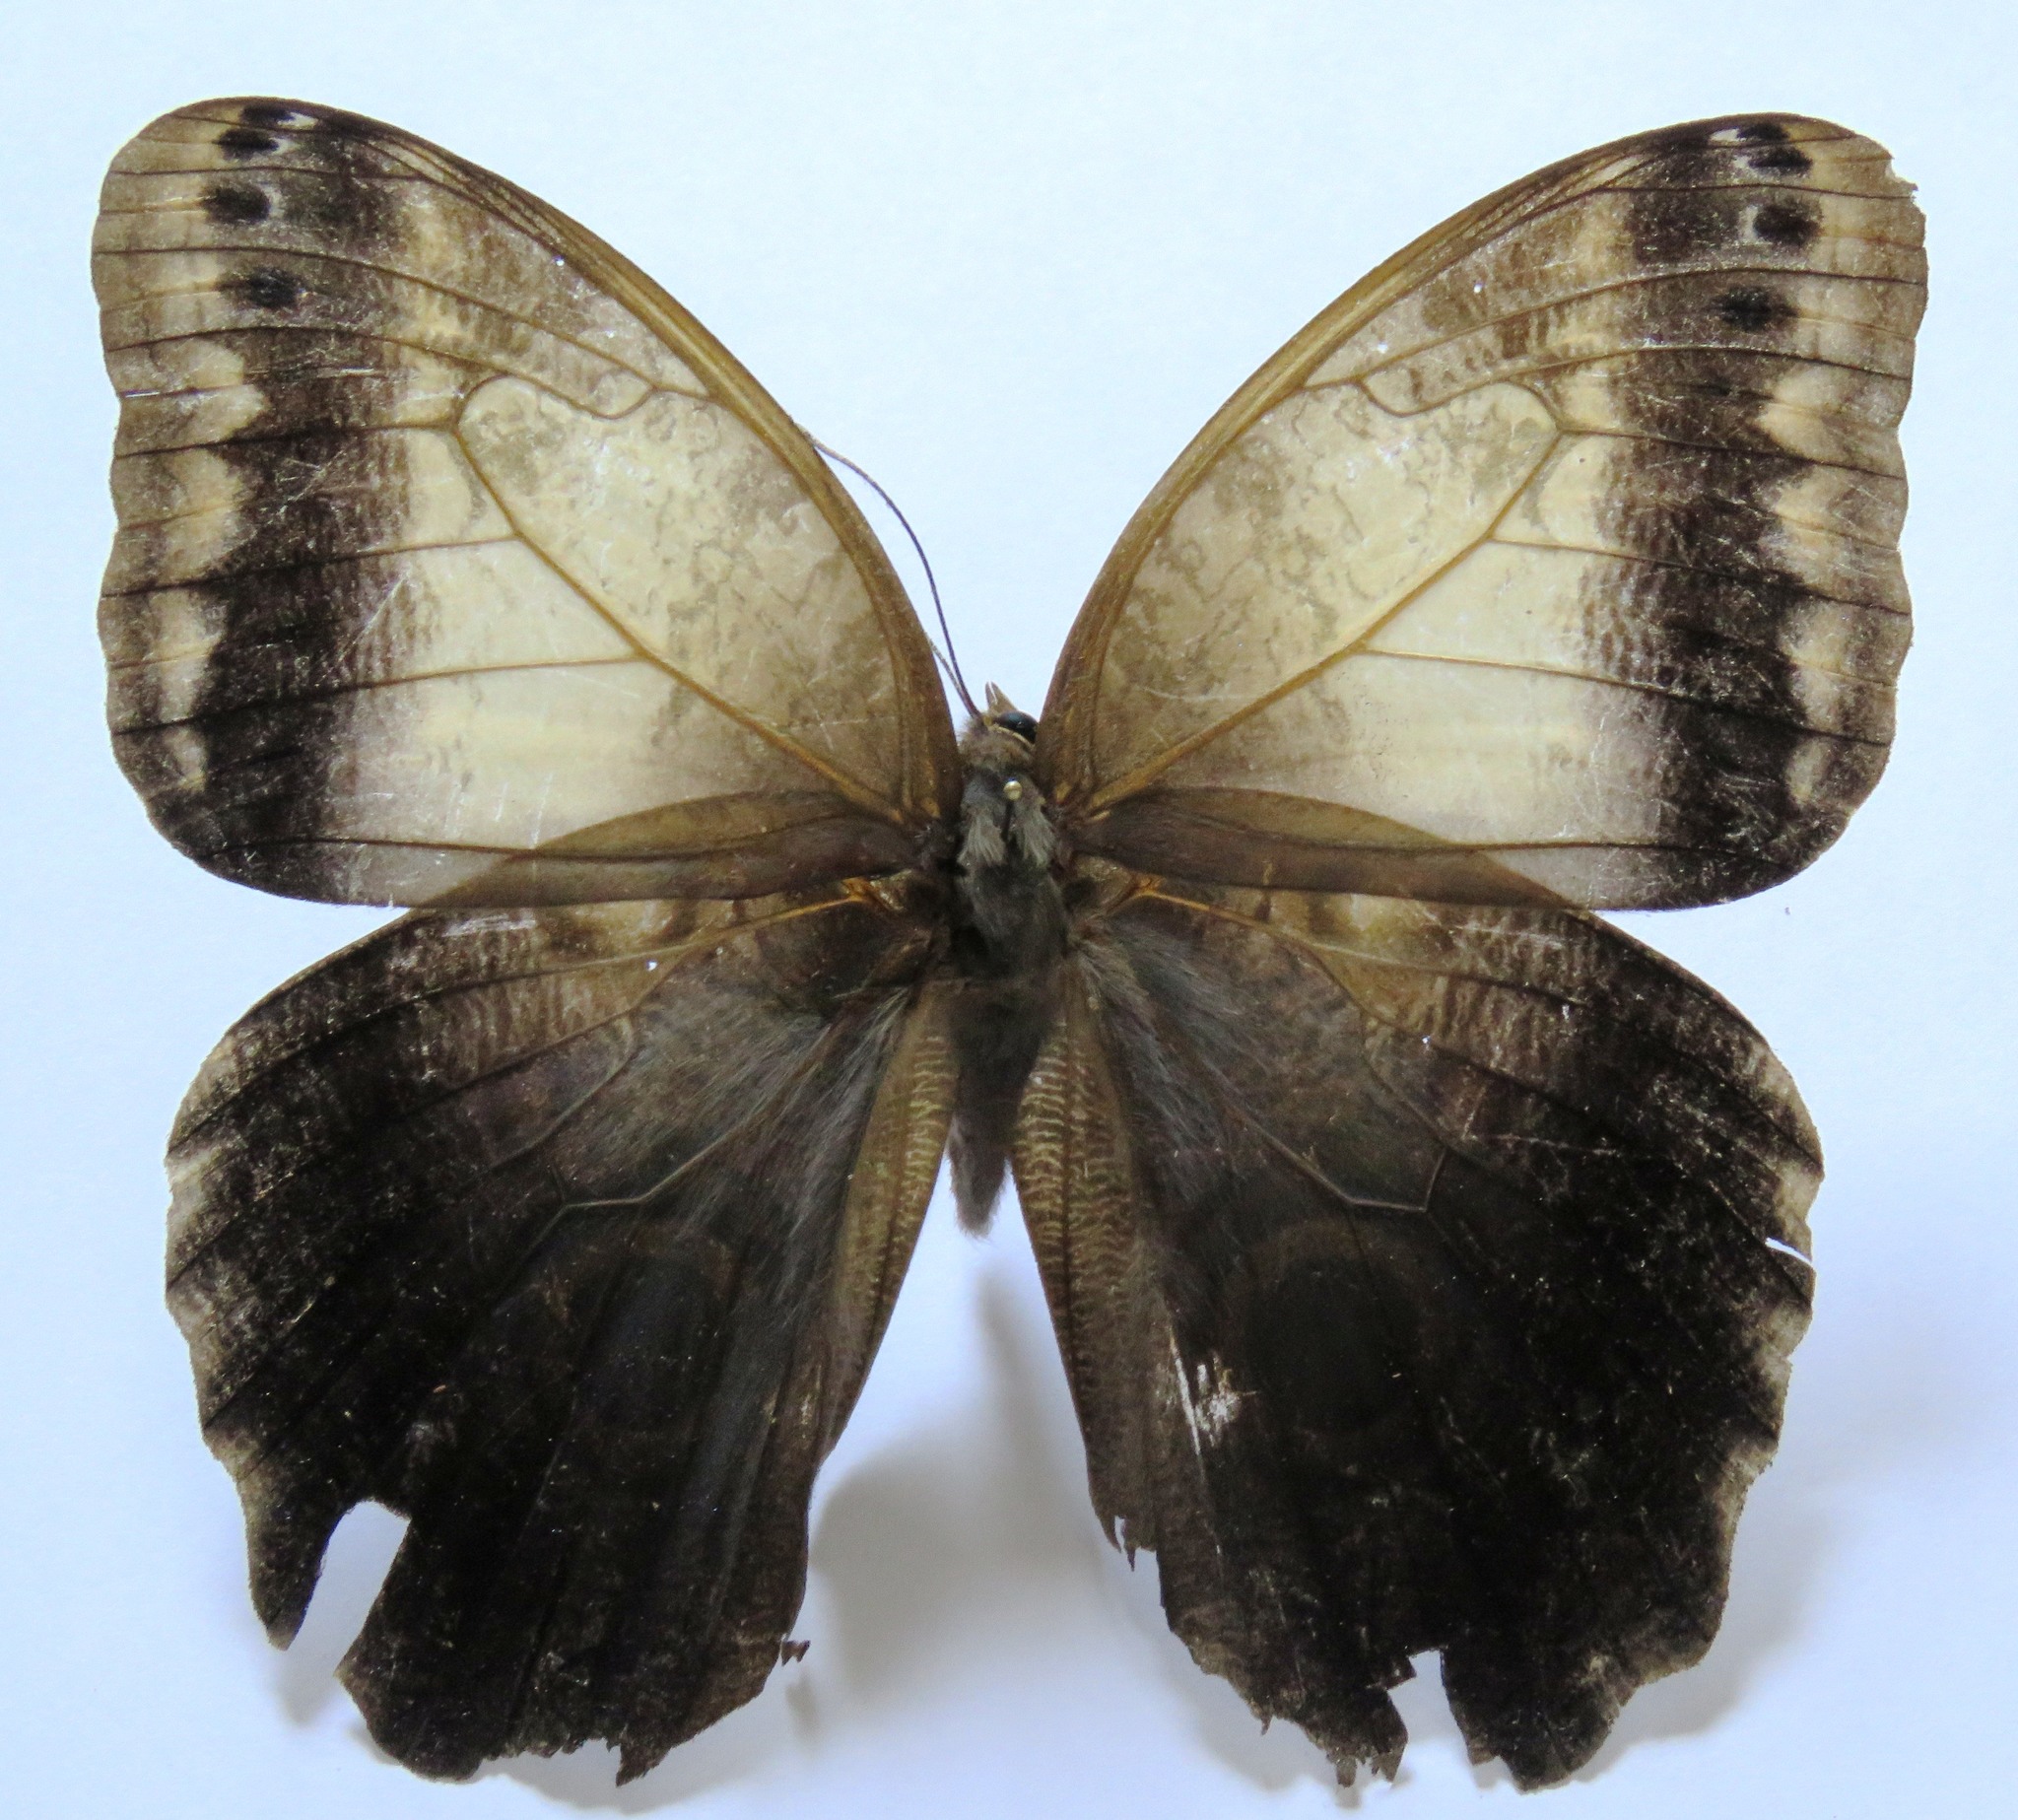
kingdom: Animalia
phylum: Arthropoda
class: Insecta
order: Lepidoptera
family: Nymphalidae
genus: Caligo
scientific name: Caligo telamonius
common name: Pale owl-butterfly
